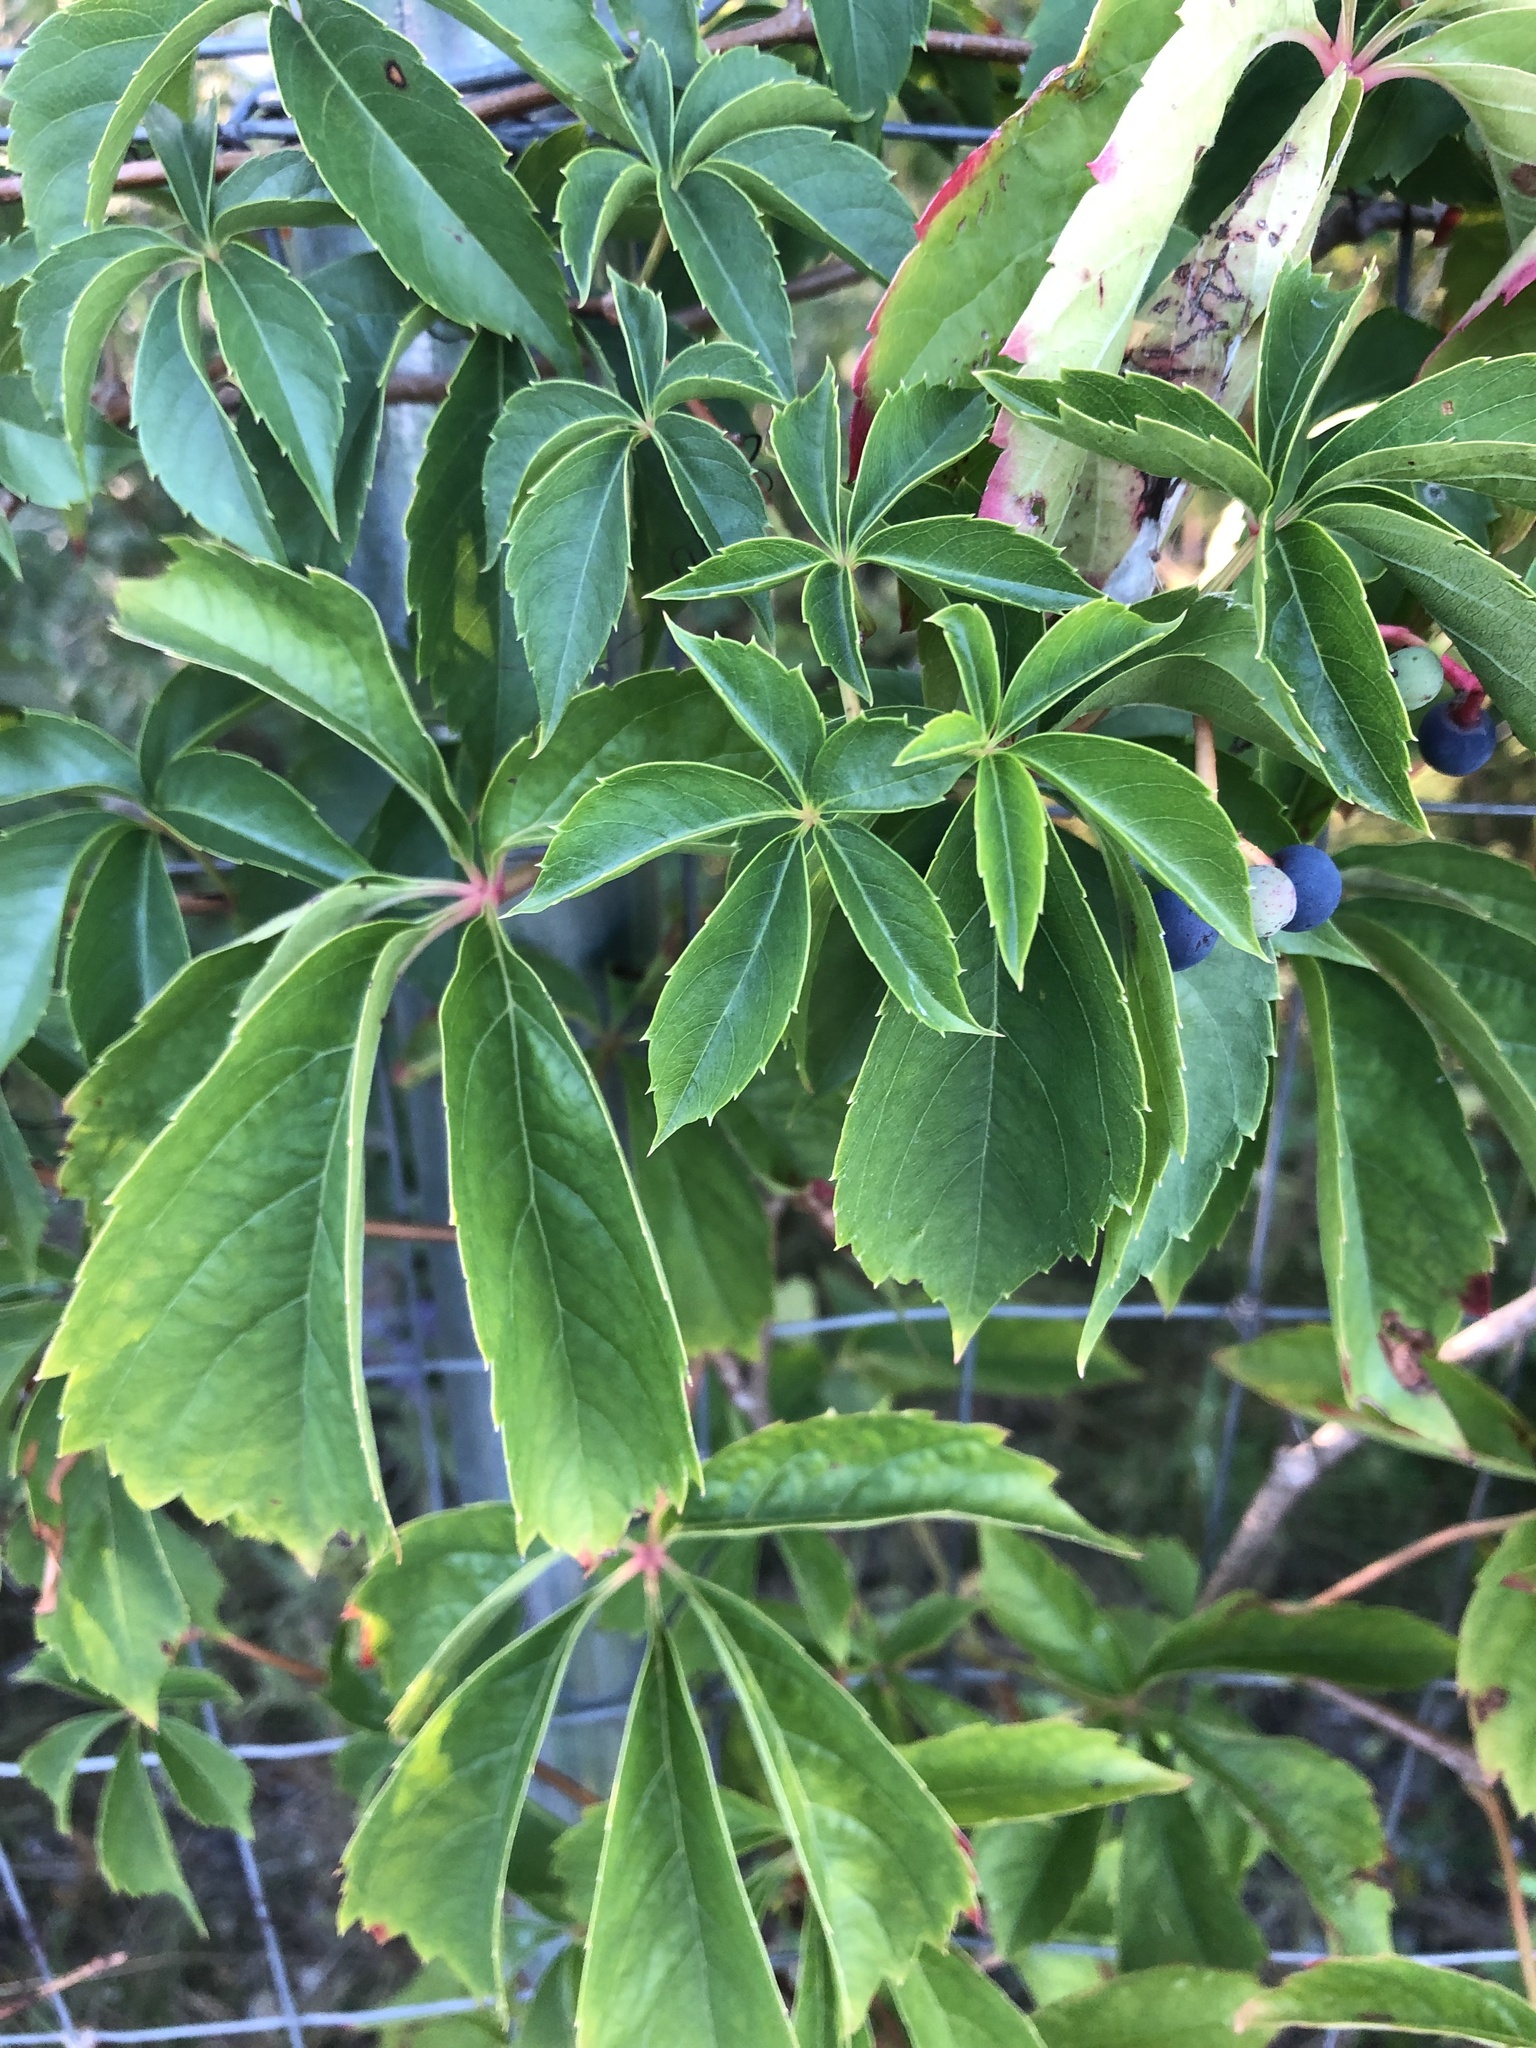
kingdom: Plantae
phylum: Tracheophyta
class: Magnoliopsida
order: Vitales
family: Vitaceae
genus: Parthenocissus
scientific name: Parthenocissus quinquefolia
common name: Virginia-creeper
